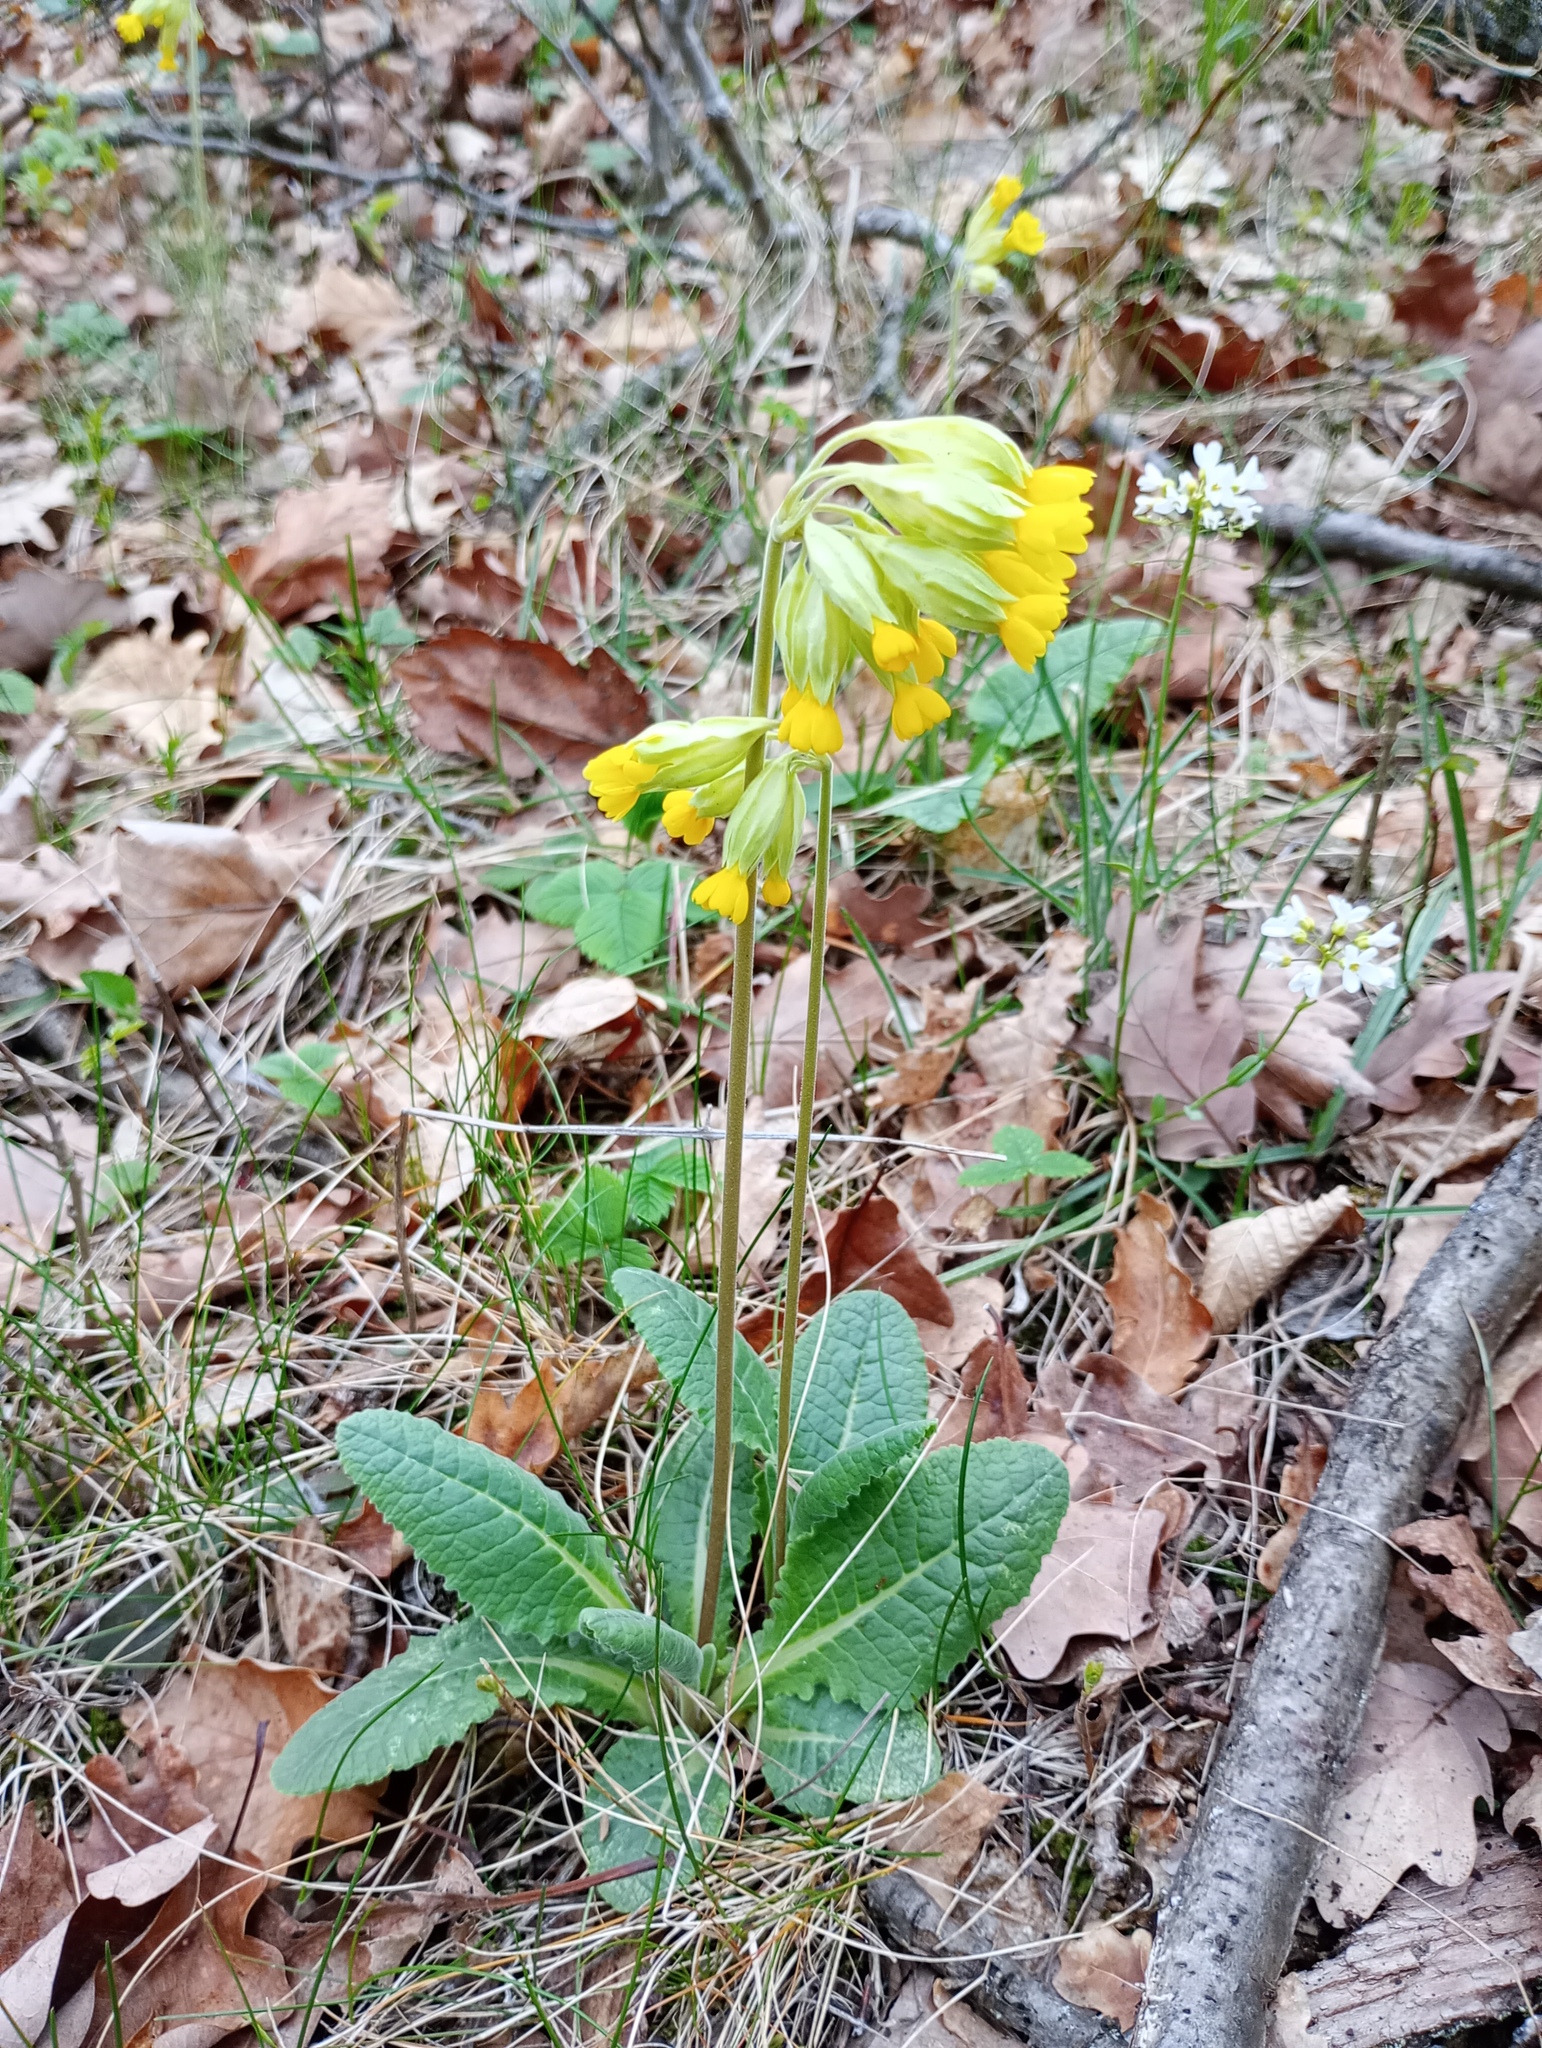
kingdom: Plantae
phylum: Tracheophyta
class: Magnoliopsida
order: Ericales
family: Primulaceae
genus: Primula
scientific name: Primula veris
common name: Cowslip
